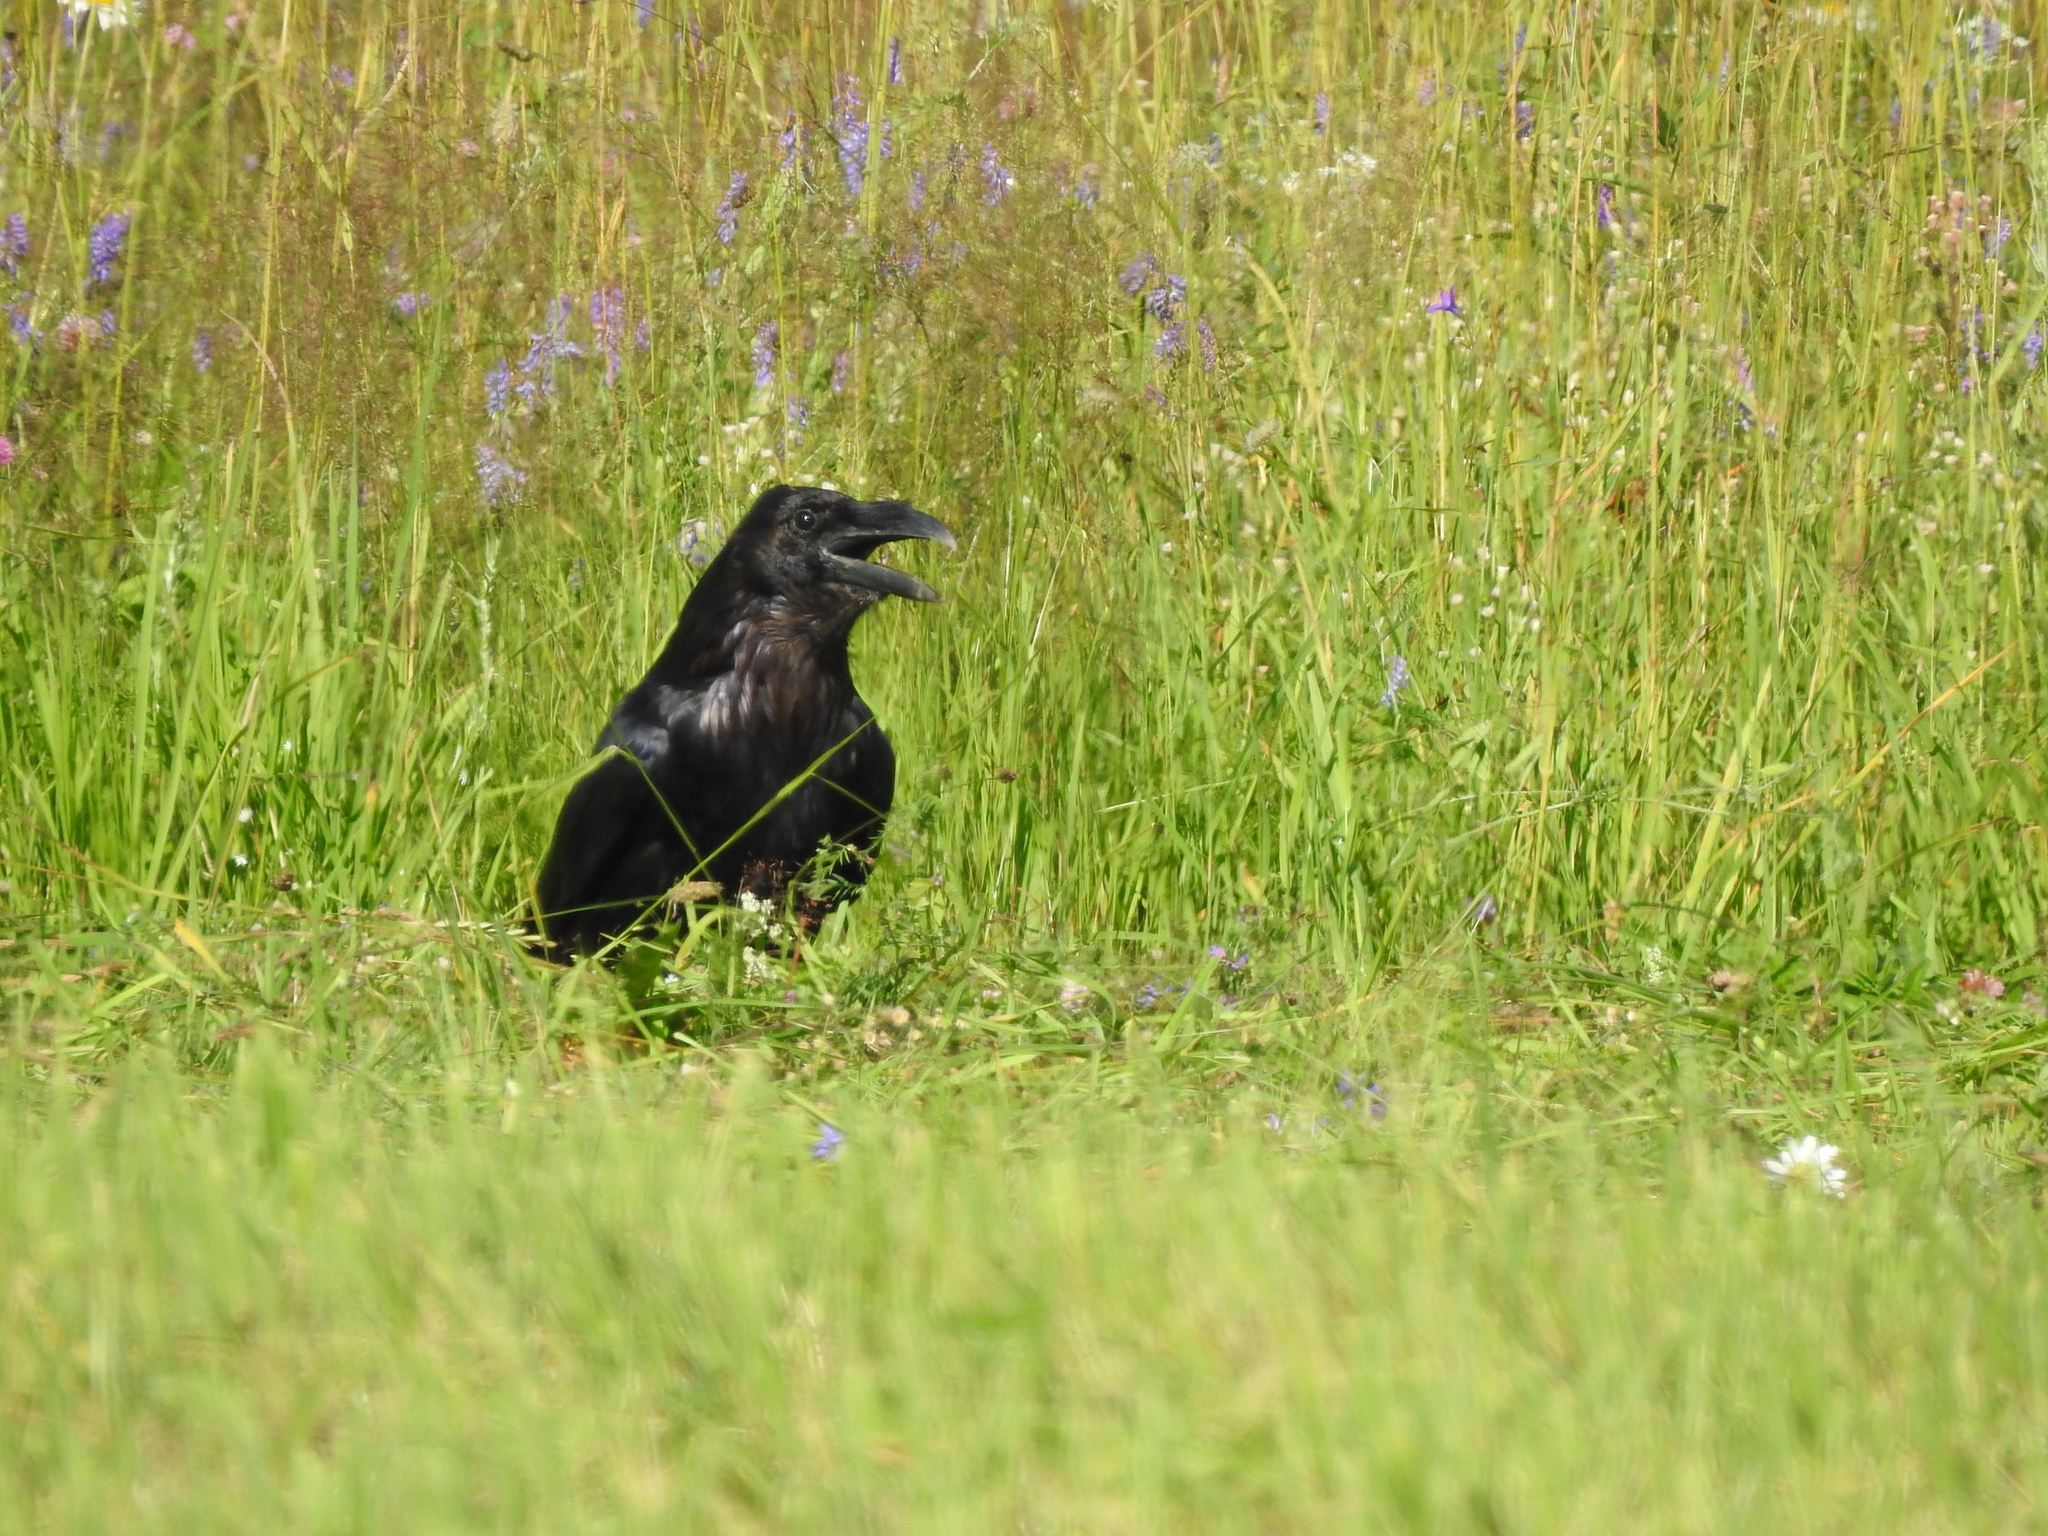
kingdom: Animalia
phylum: Chordata
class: Aves
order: Passeriformes
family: Corvidae
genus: Corvus
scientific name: Corvus corax
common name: Common raven
